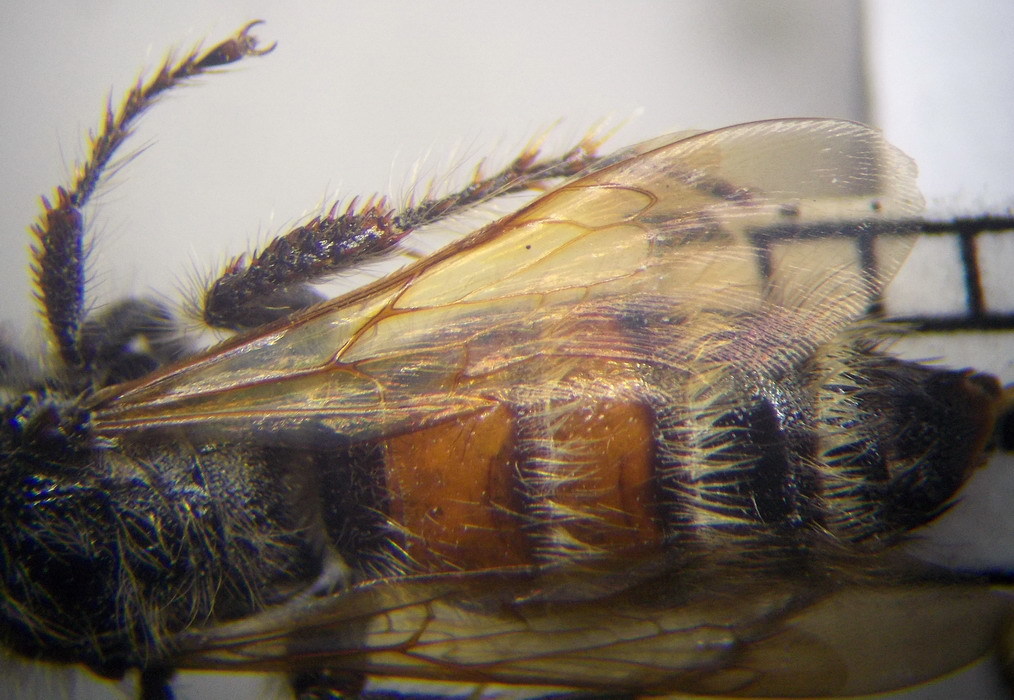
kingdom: Animalia
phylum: Arthropoda
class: Insecta
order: Hymenoptera
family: Scoliidae
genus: Colpa
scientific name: Colpa quinquecincta
